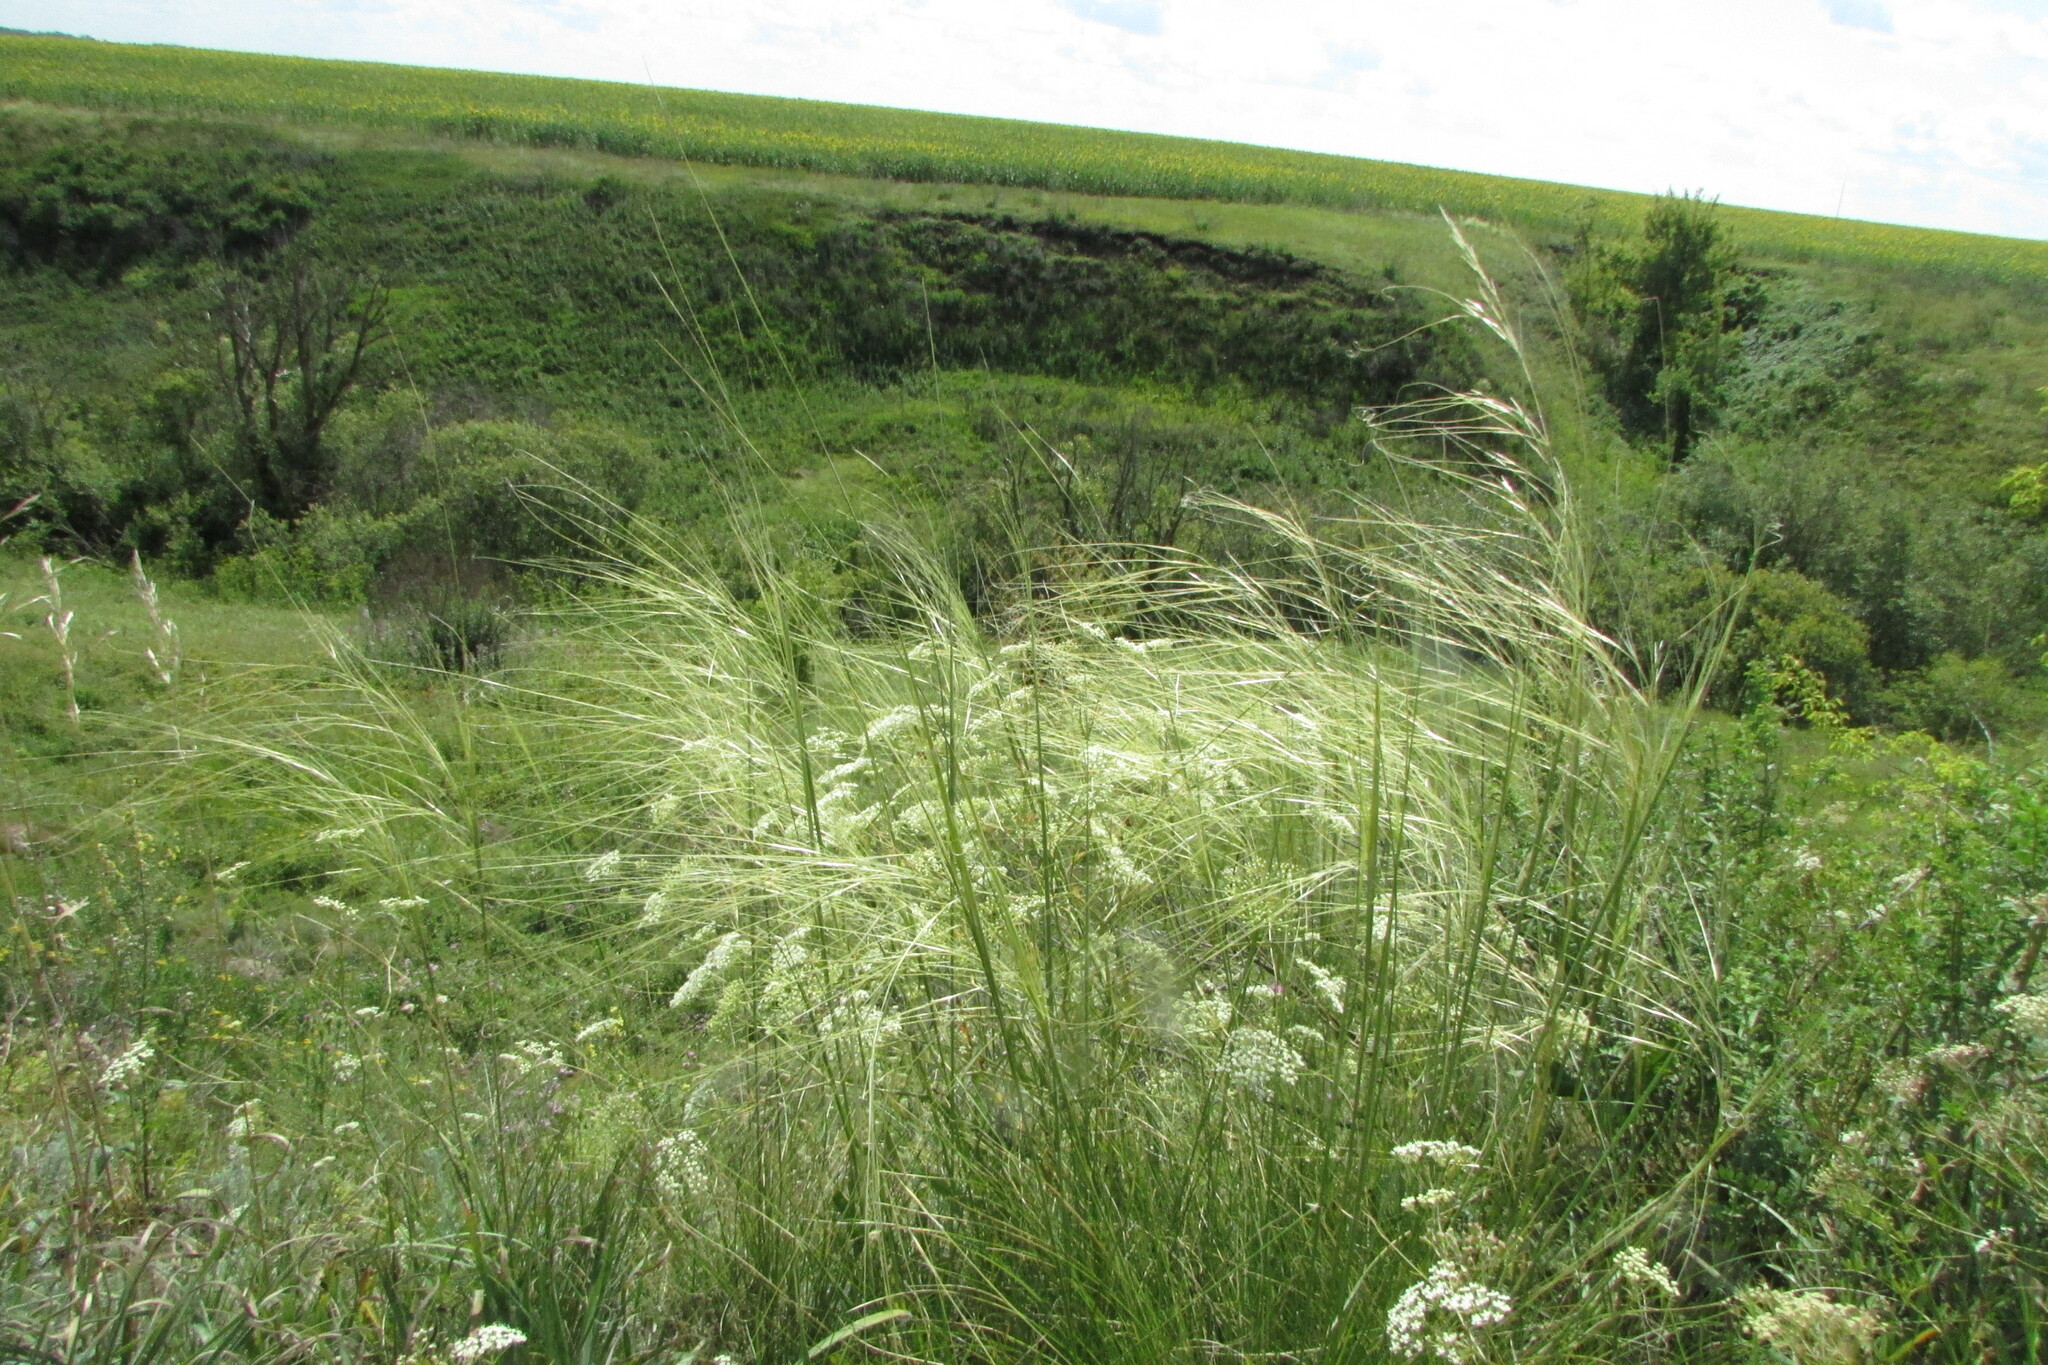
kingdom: Plantae
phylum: Tracheophyta
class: Liliopsida
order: Poales
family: Poaceae
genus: Stipa
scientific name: Stipa capillata
